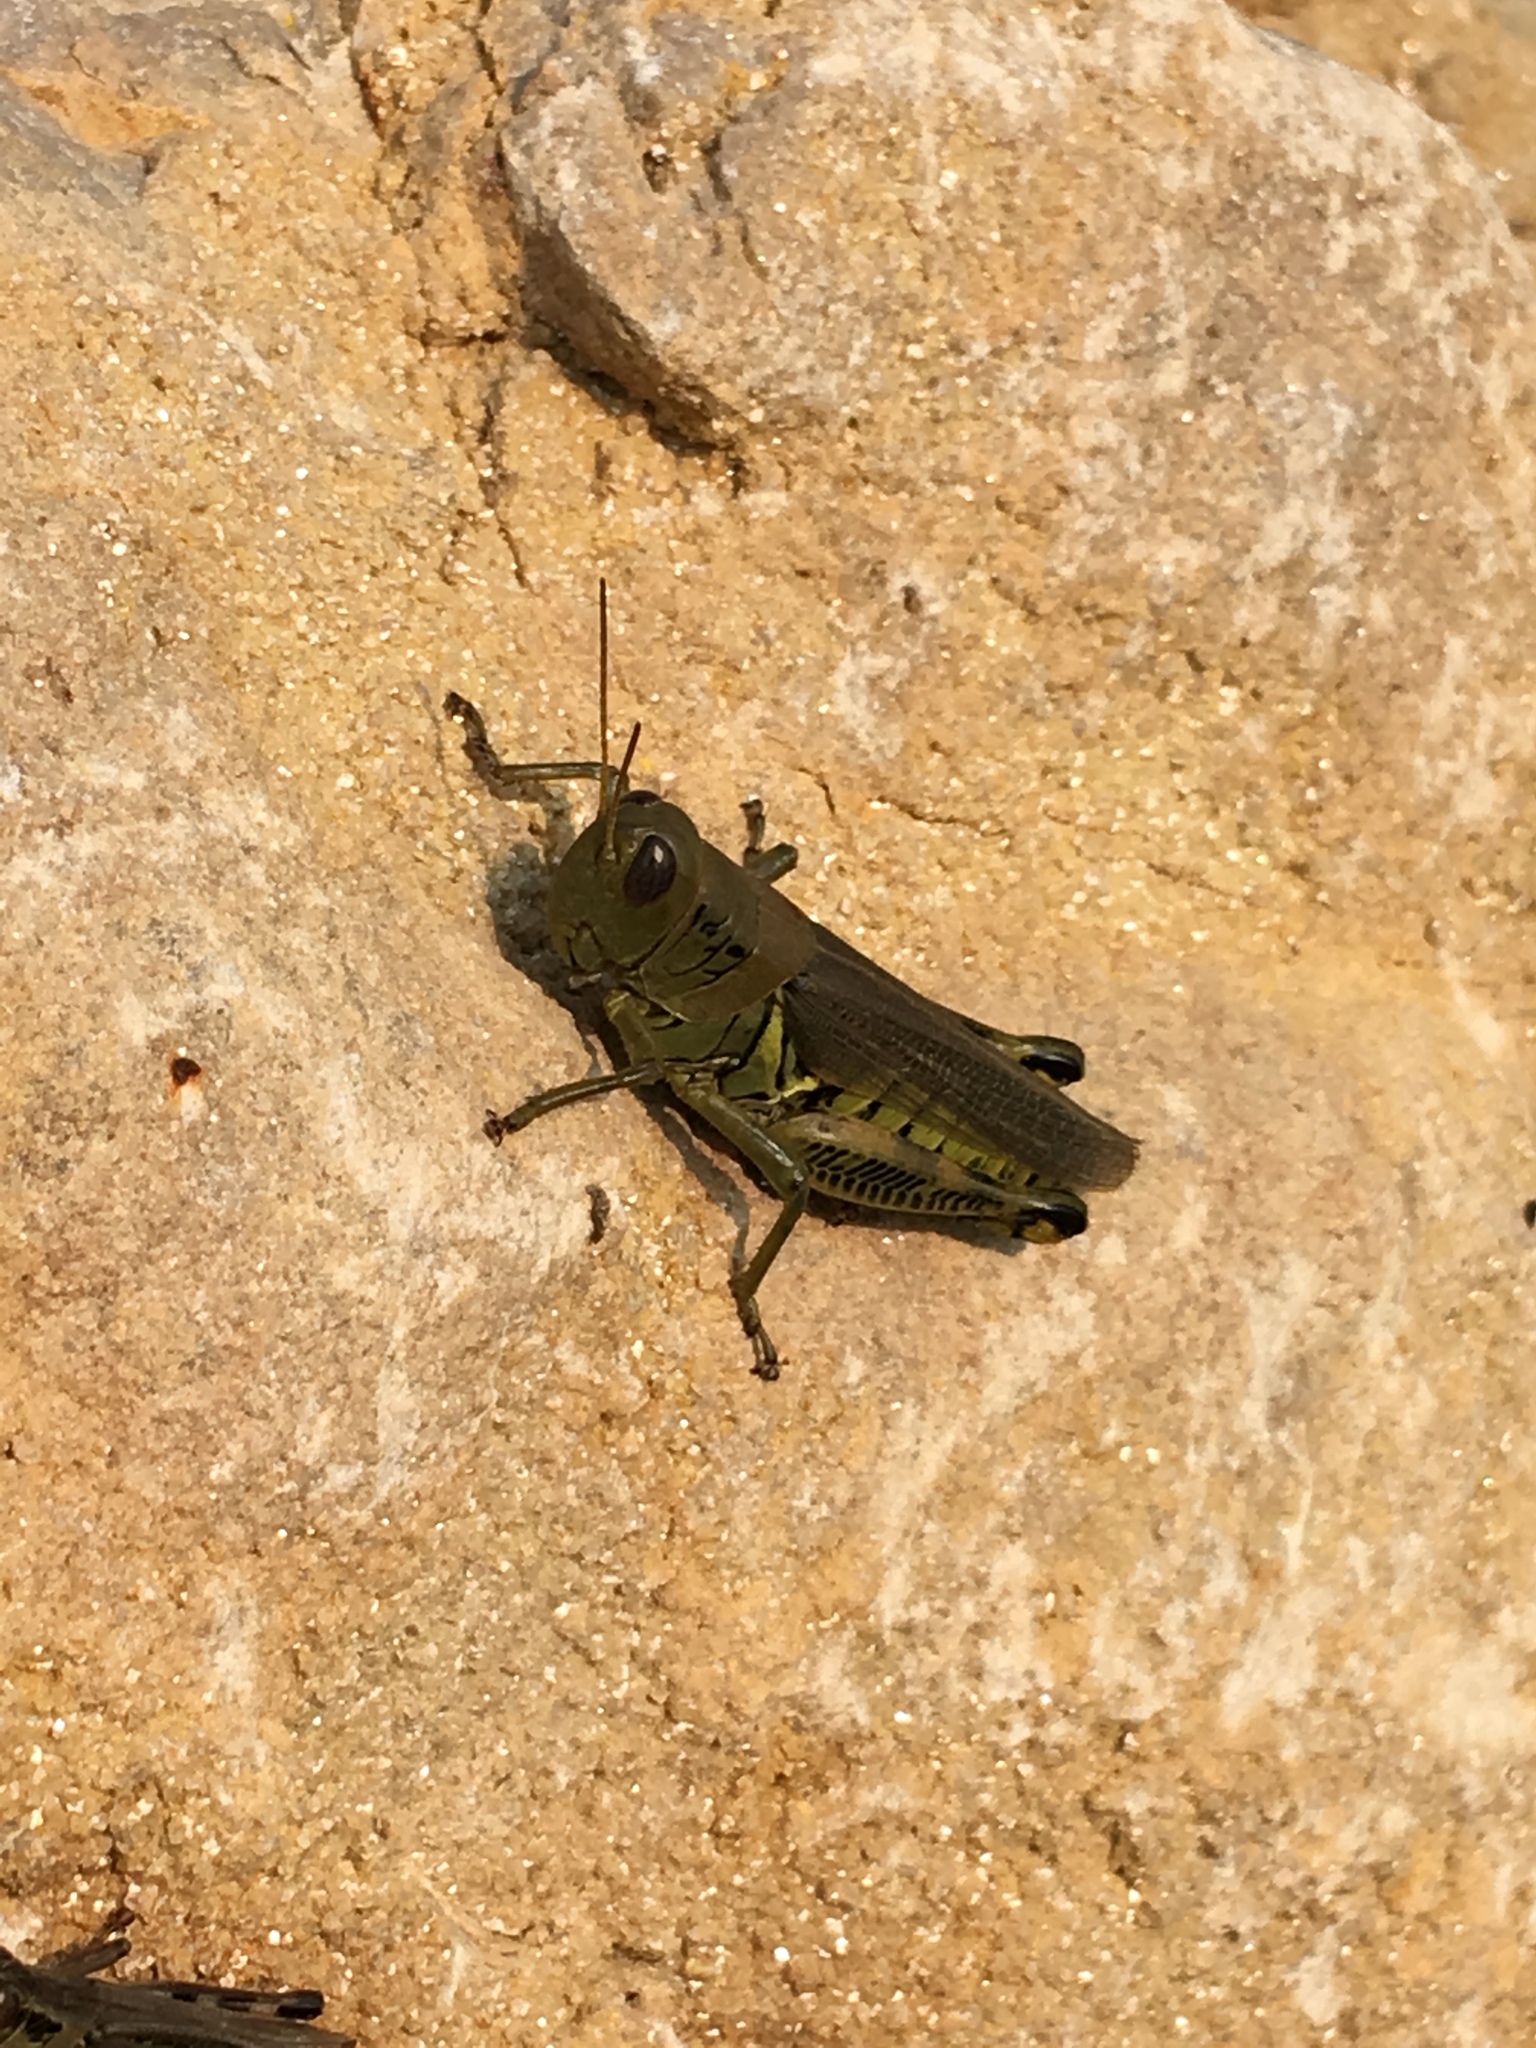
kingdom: Animalia
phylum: Arthropoda
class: Insecta
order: Orthoptera
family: Acrididae
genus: Melanoplus
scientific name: Melanoplus differentialis
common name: Differential grasshopper
